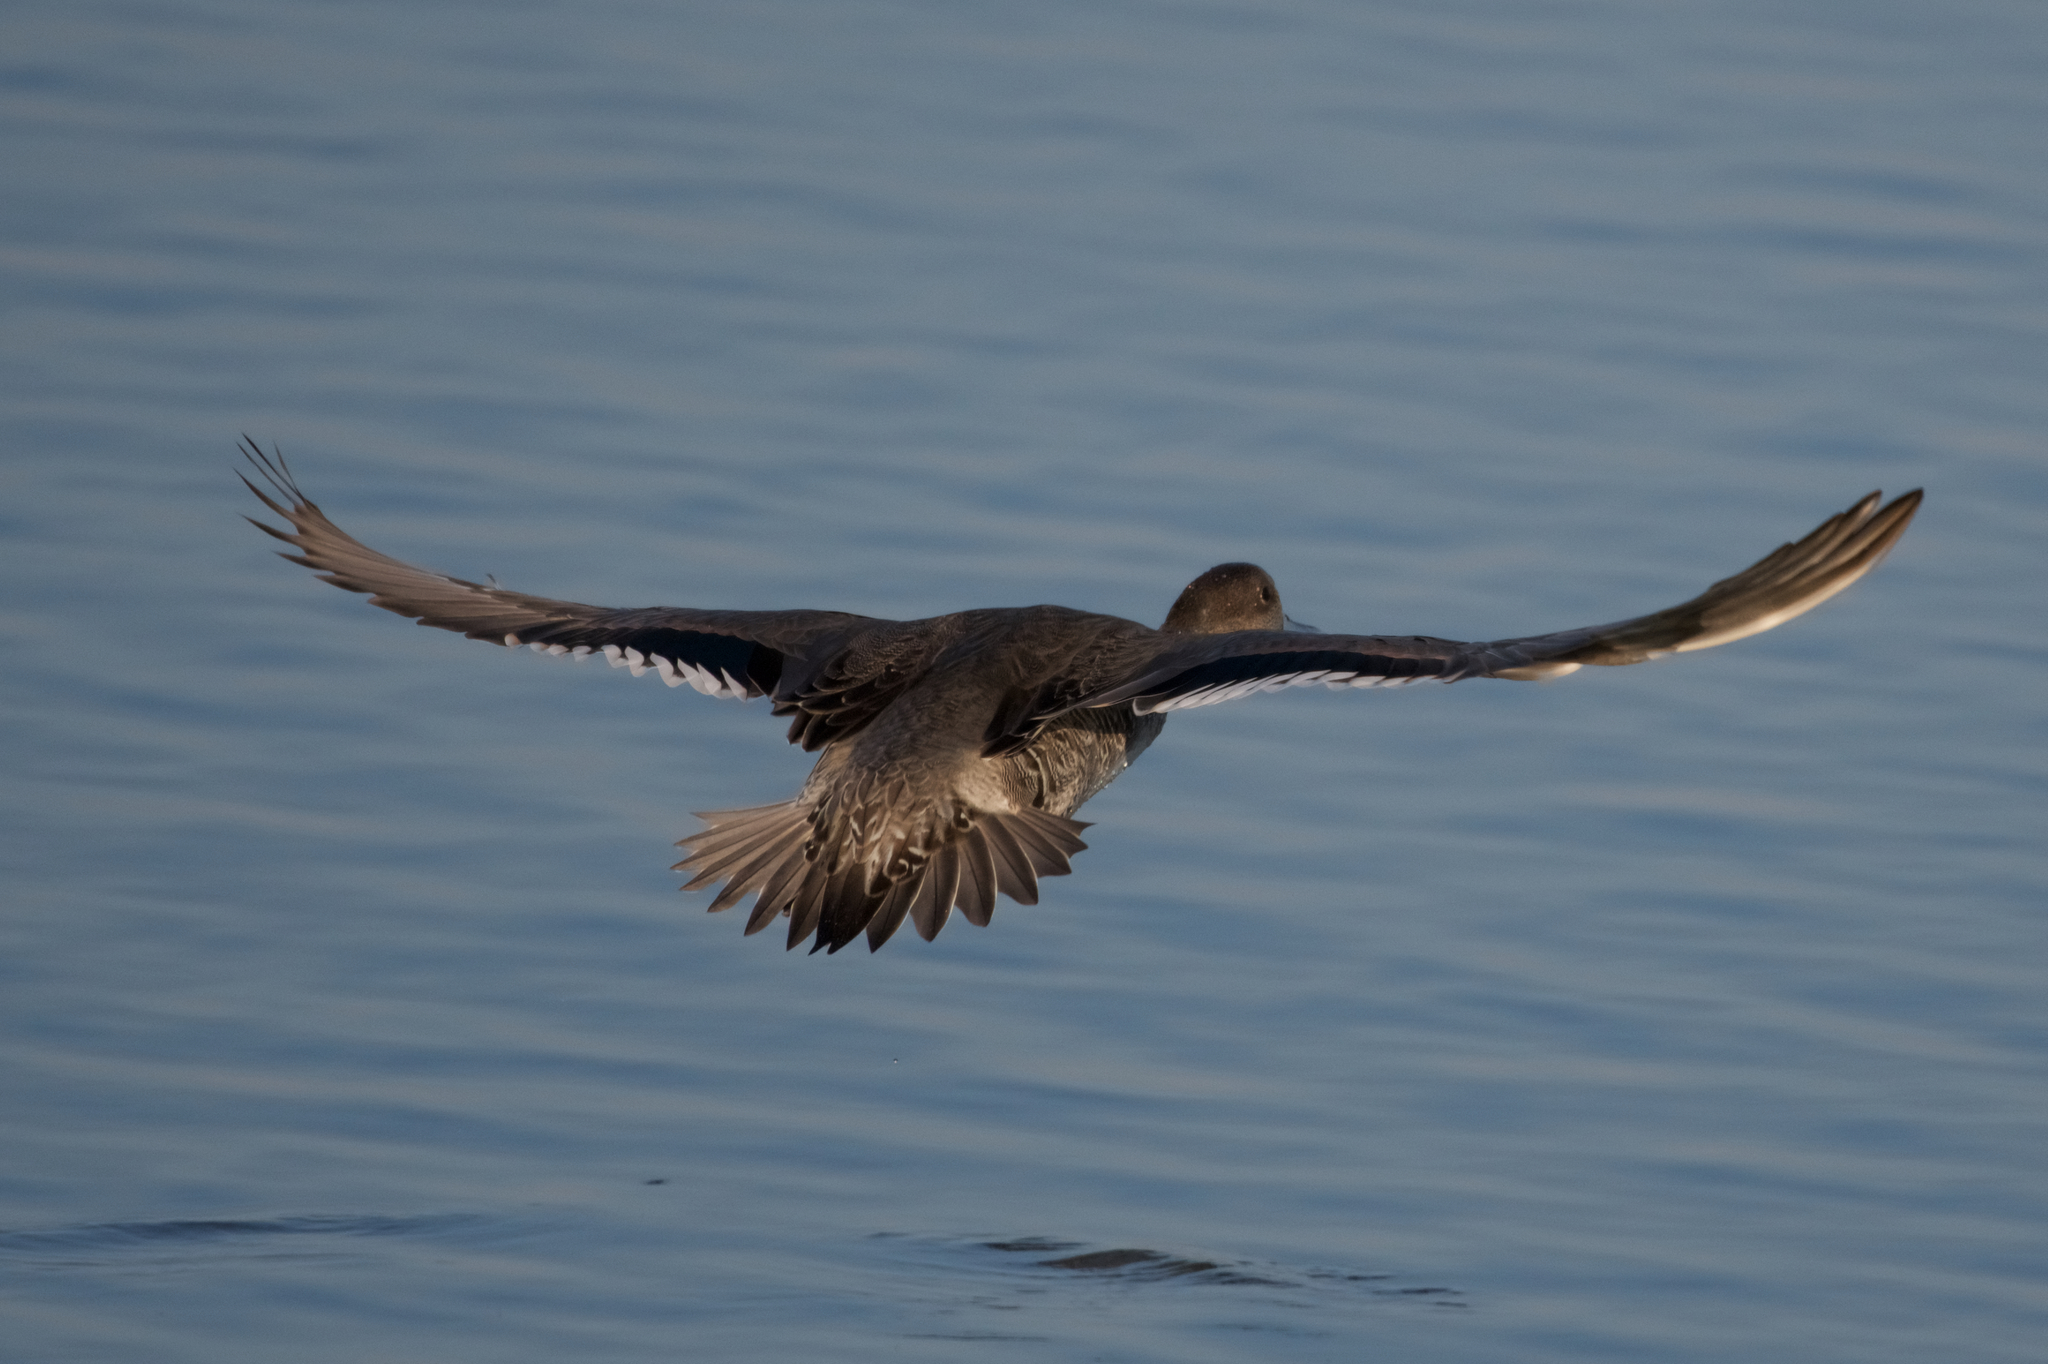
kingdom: Animalia
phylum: Chordata
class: Aves
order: Anseriformes
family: Anatidae
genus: Anas
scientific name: Anas acuta
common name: Northern pintail
